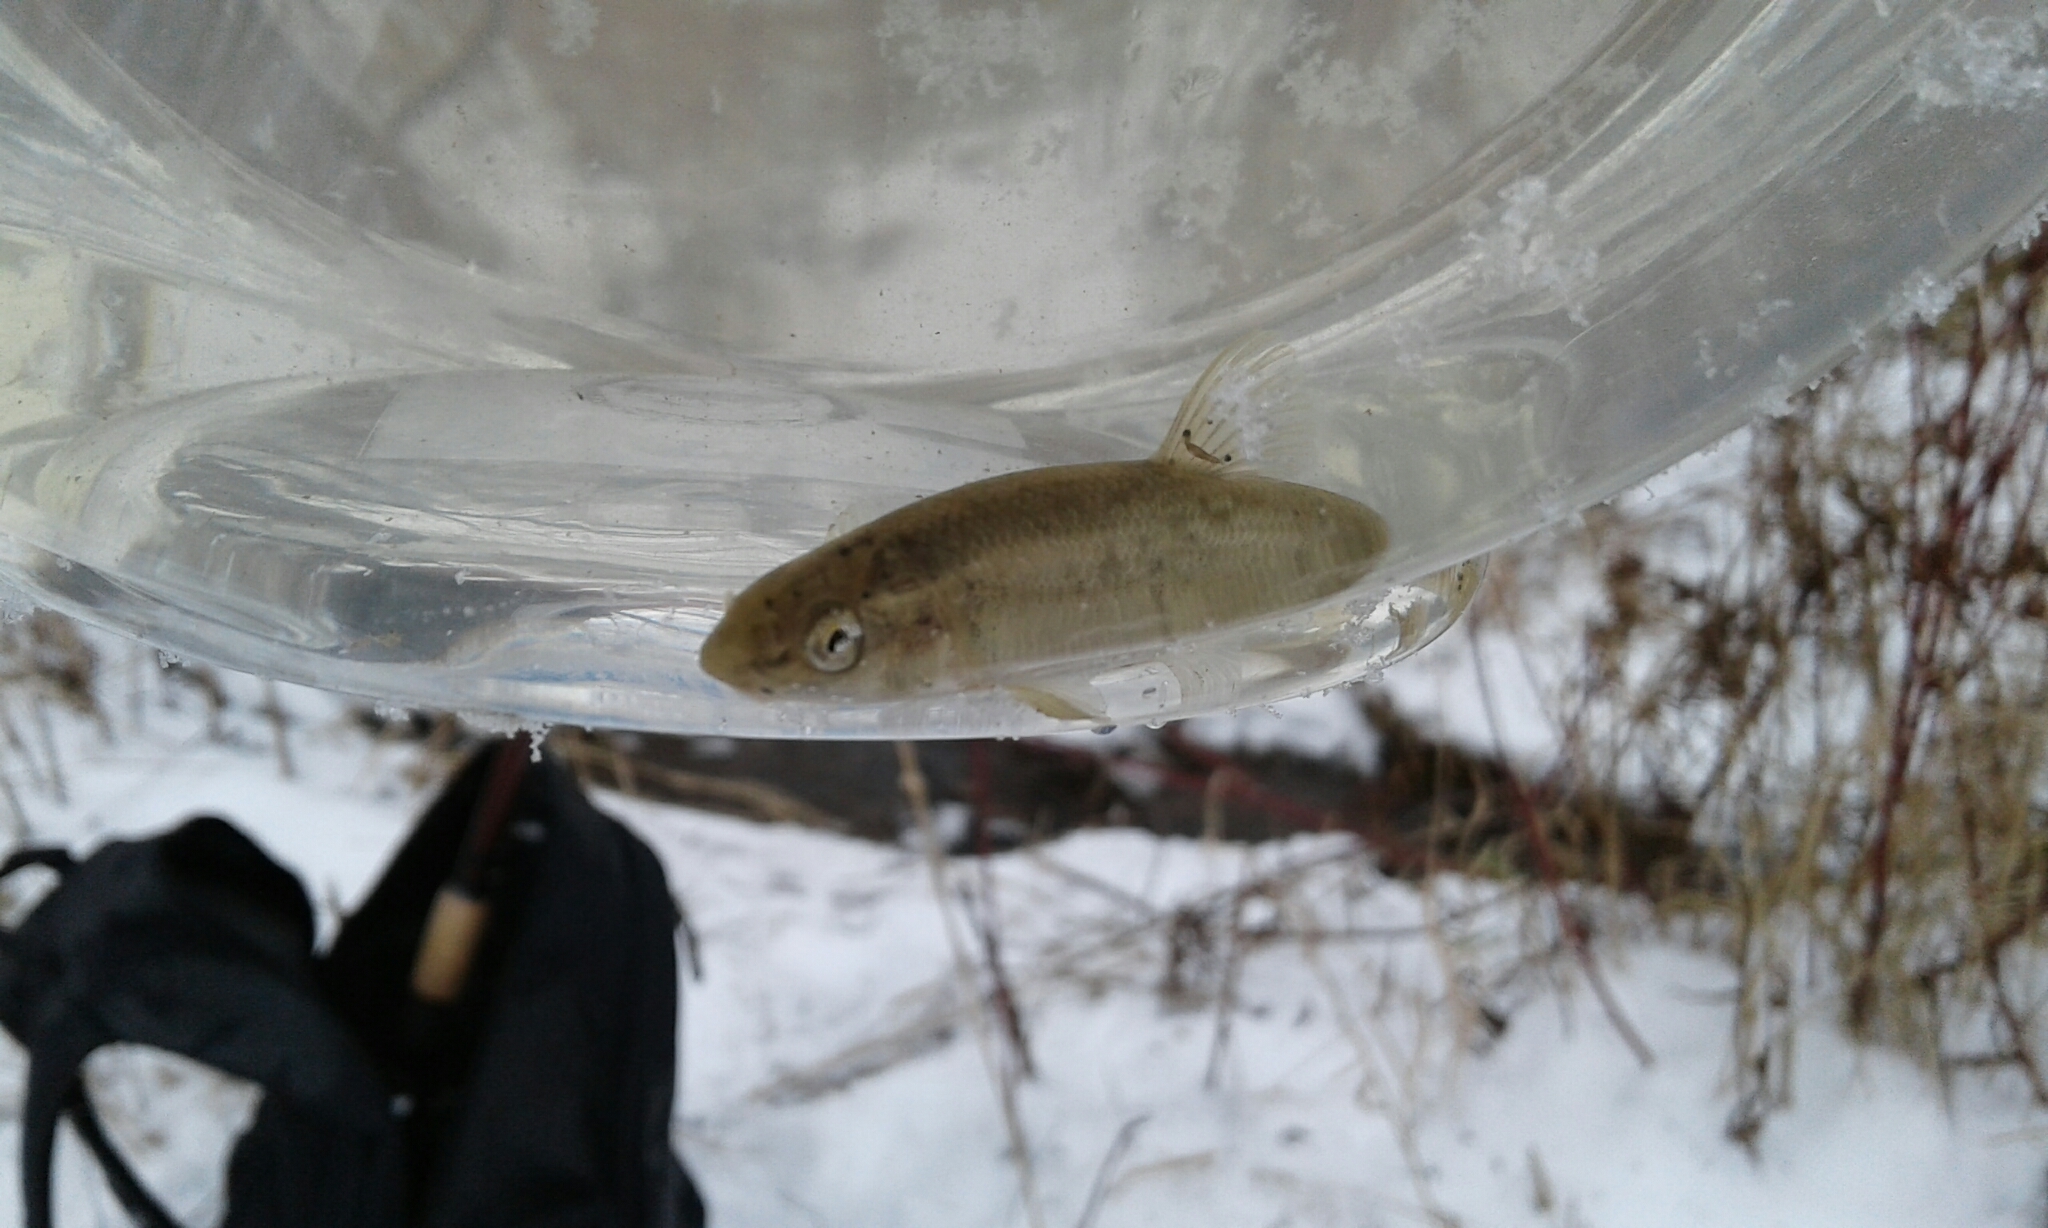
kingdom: Animalia
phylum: Chordata
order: Cypriniformes
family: Cyprinidae
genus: Campostoma
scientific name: Campostoma anomalum
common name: Central stoneroller
